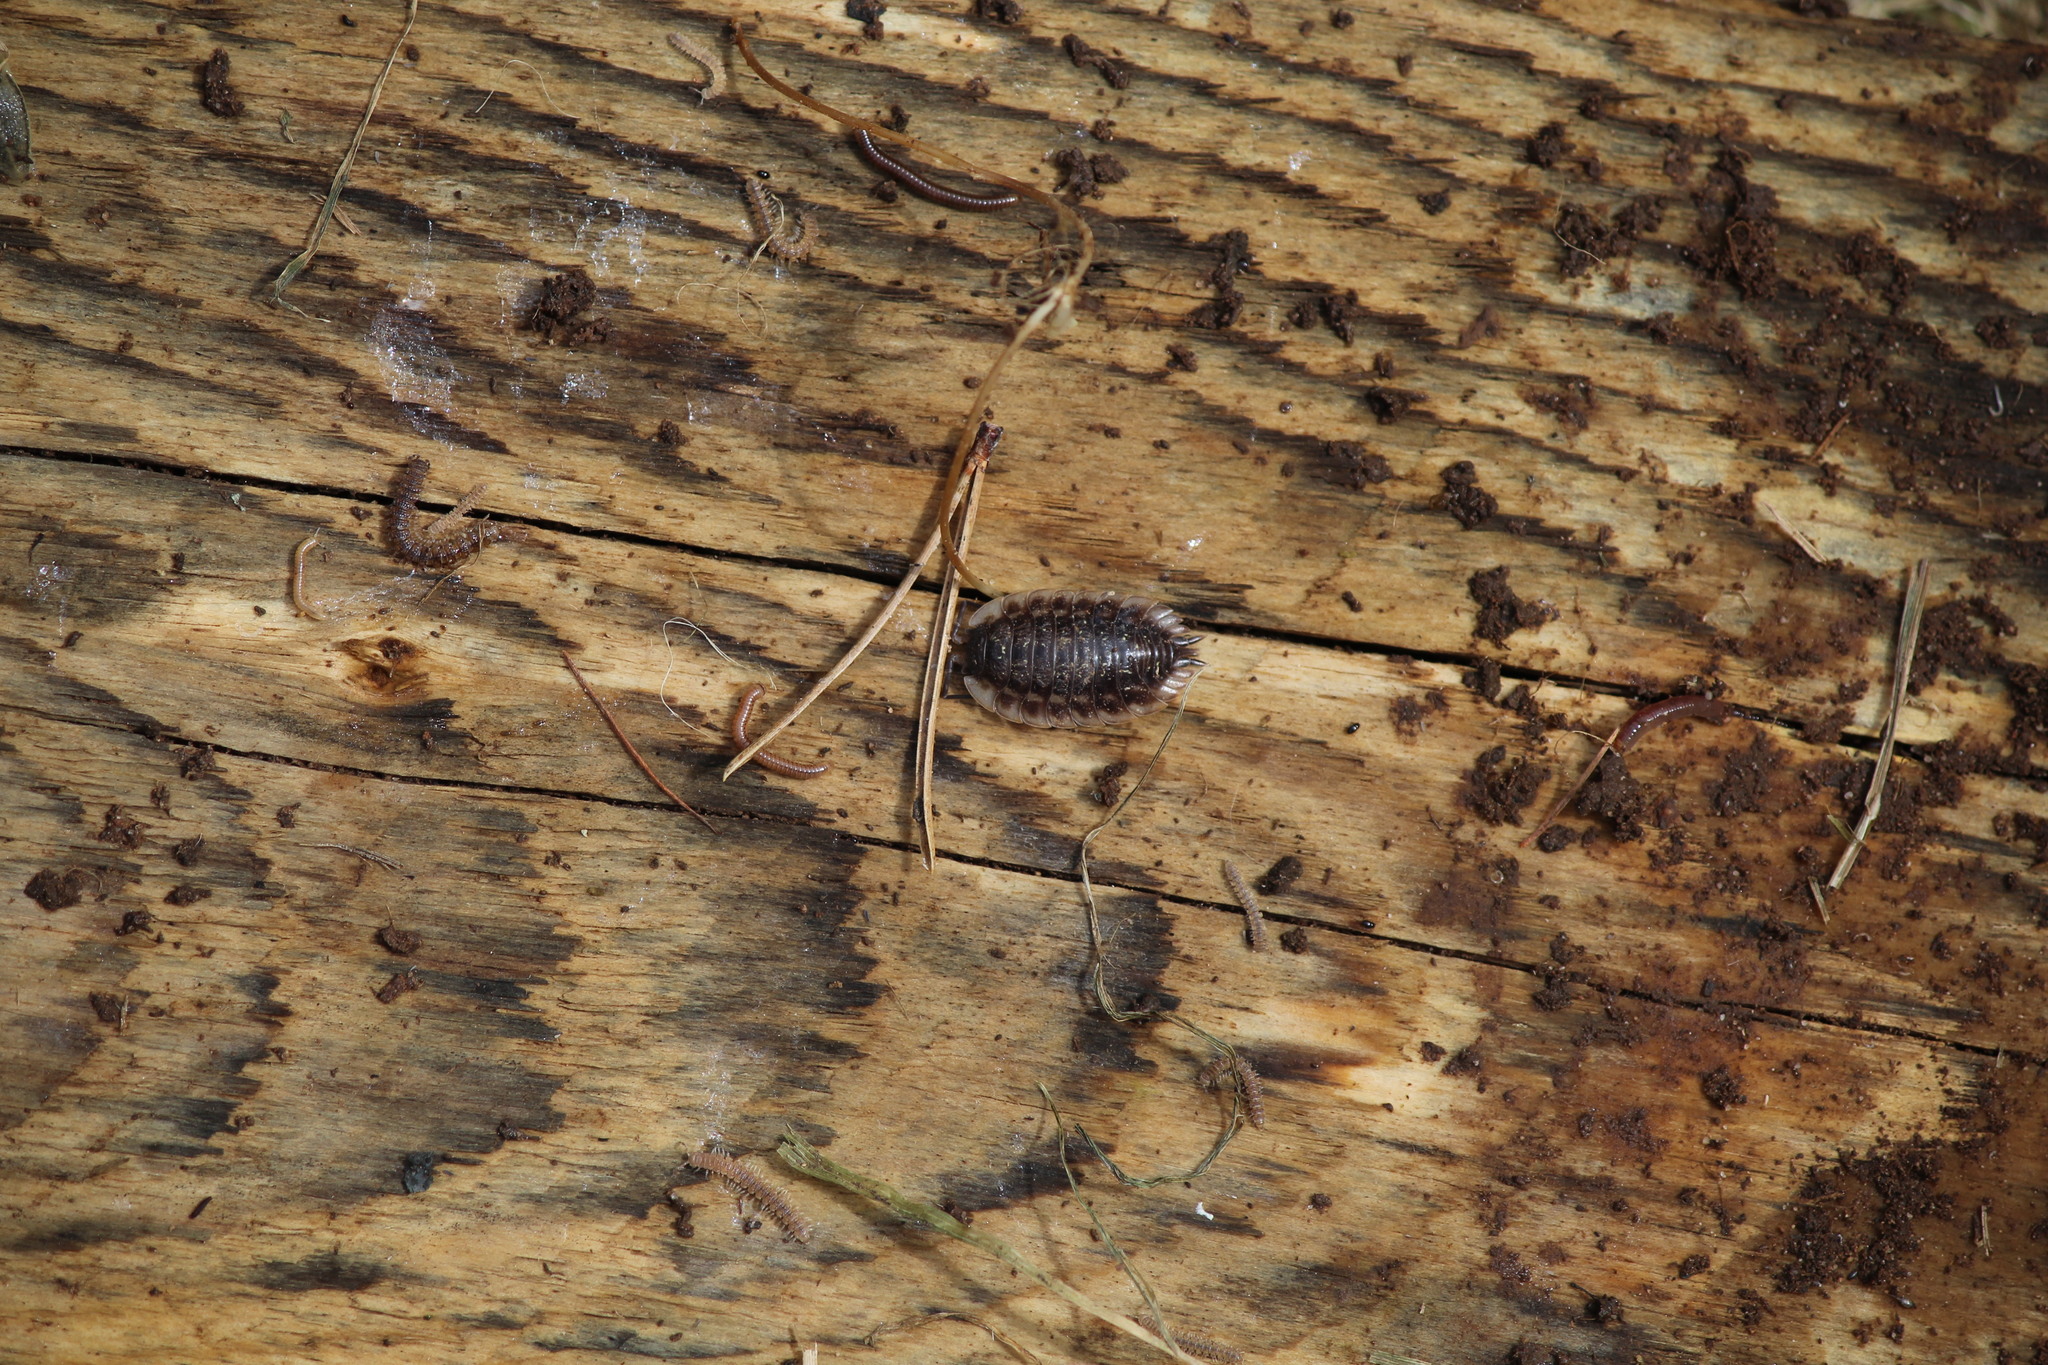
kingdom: Animalia
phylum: Arthropoda
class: Malacostraca
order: Isopoda
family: Oniscidae
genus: Oniscus
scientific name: Oniscus asellus
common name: Common shiny woodlouse
